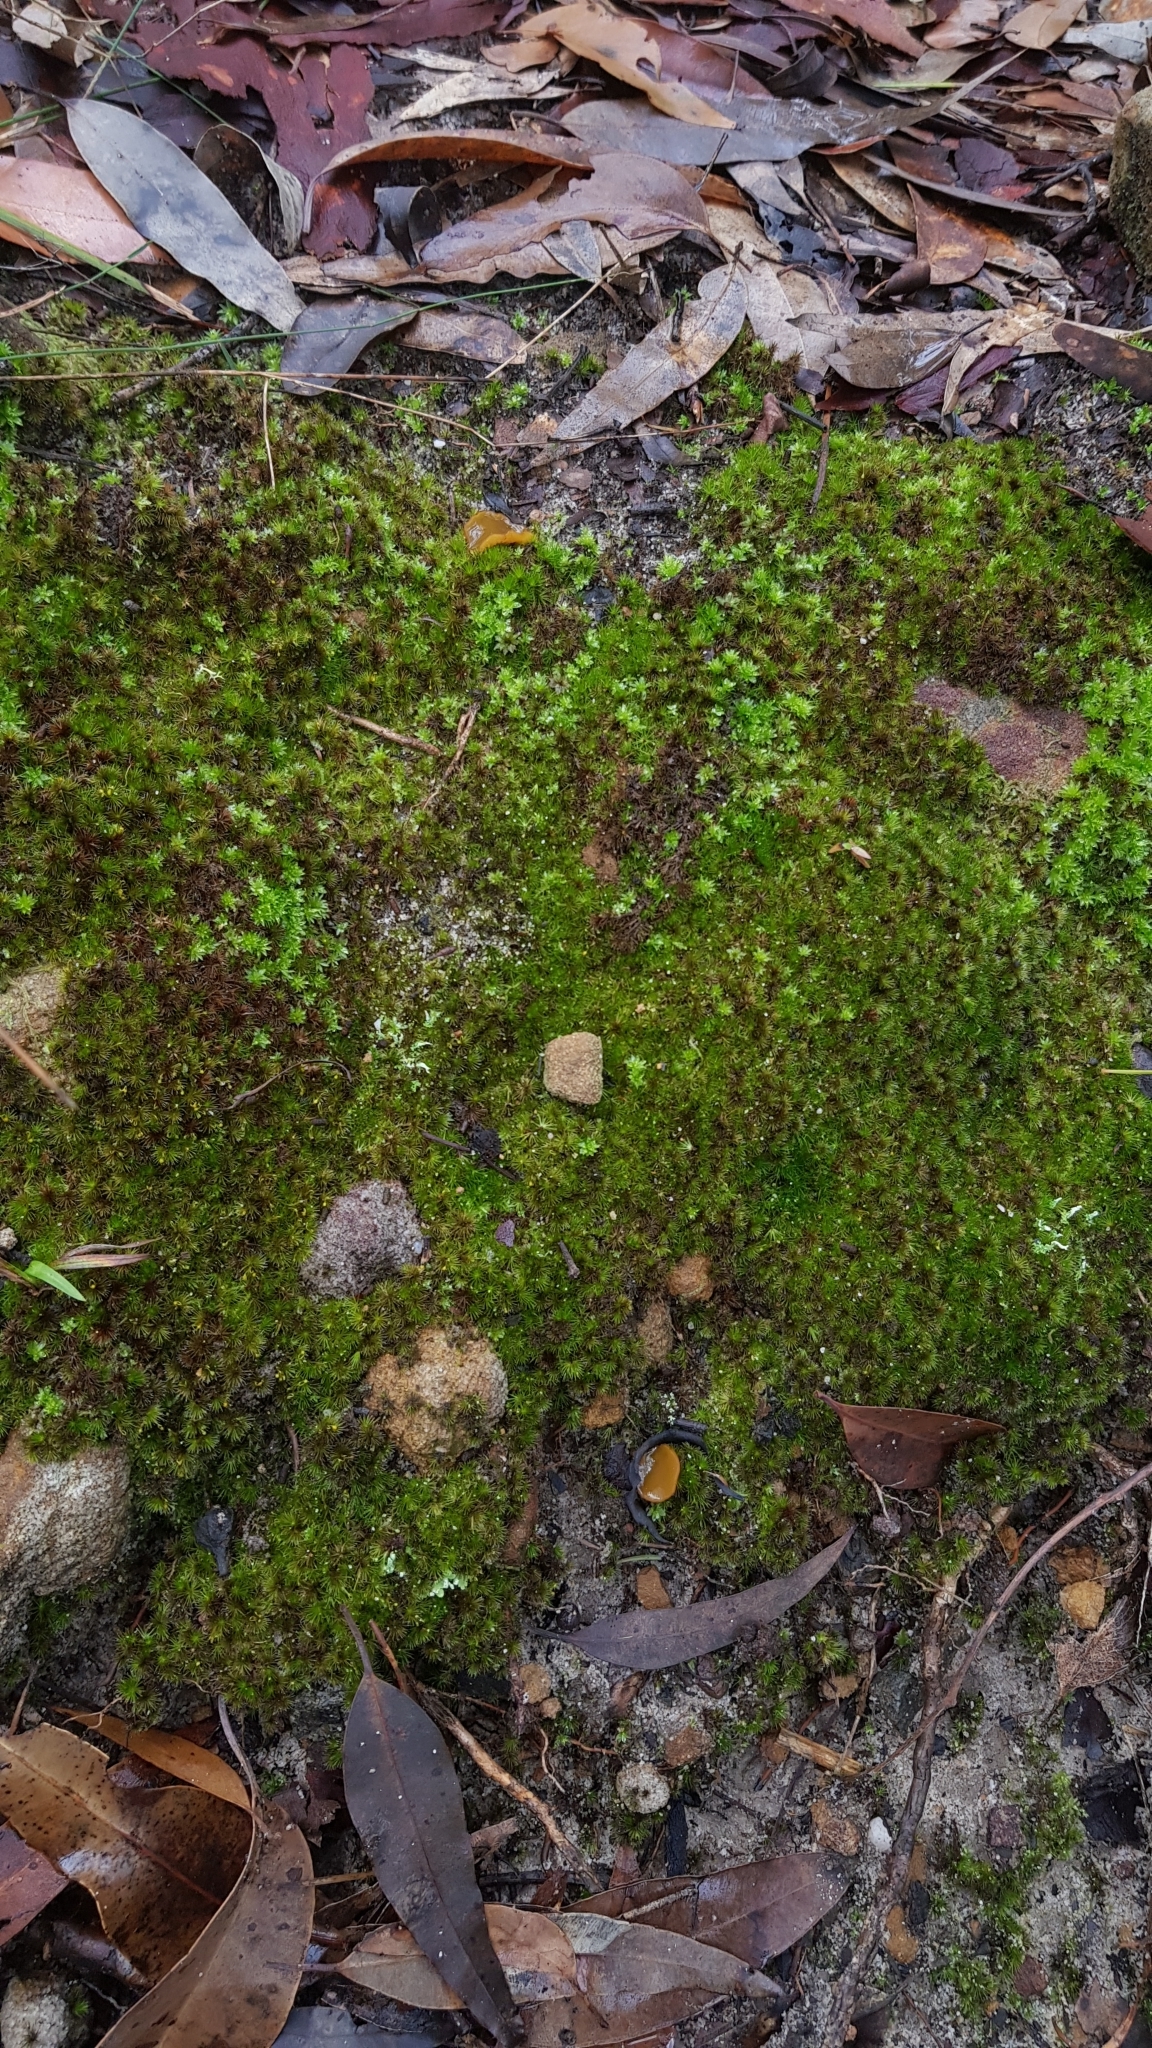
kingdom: Fungi
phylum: Ascomycota
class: Pezizomycetes
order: Pezizales
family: Pyronemataceae
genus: Aleurina
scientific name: Aleurina ferruginea
